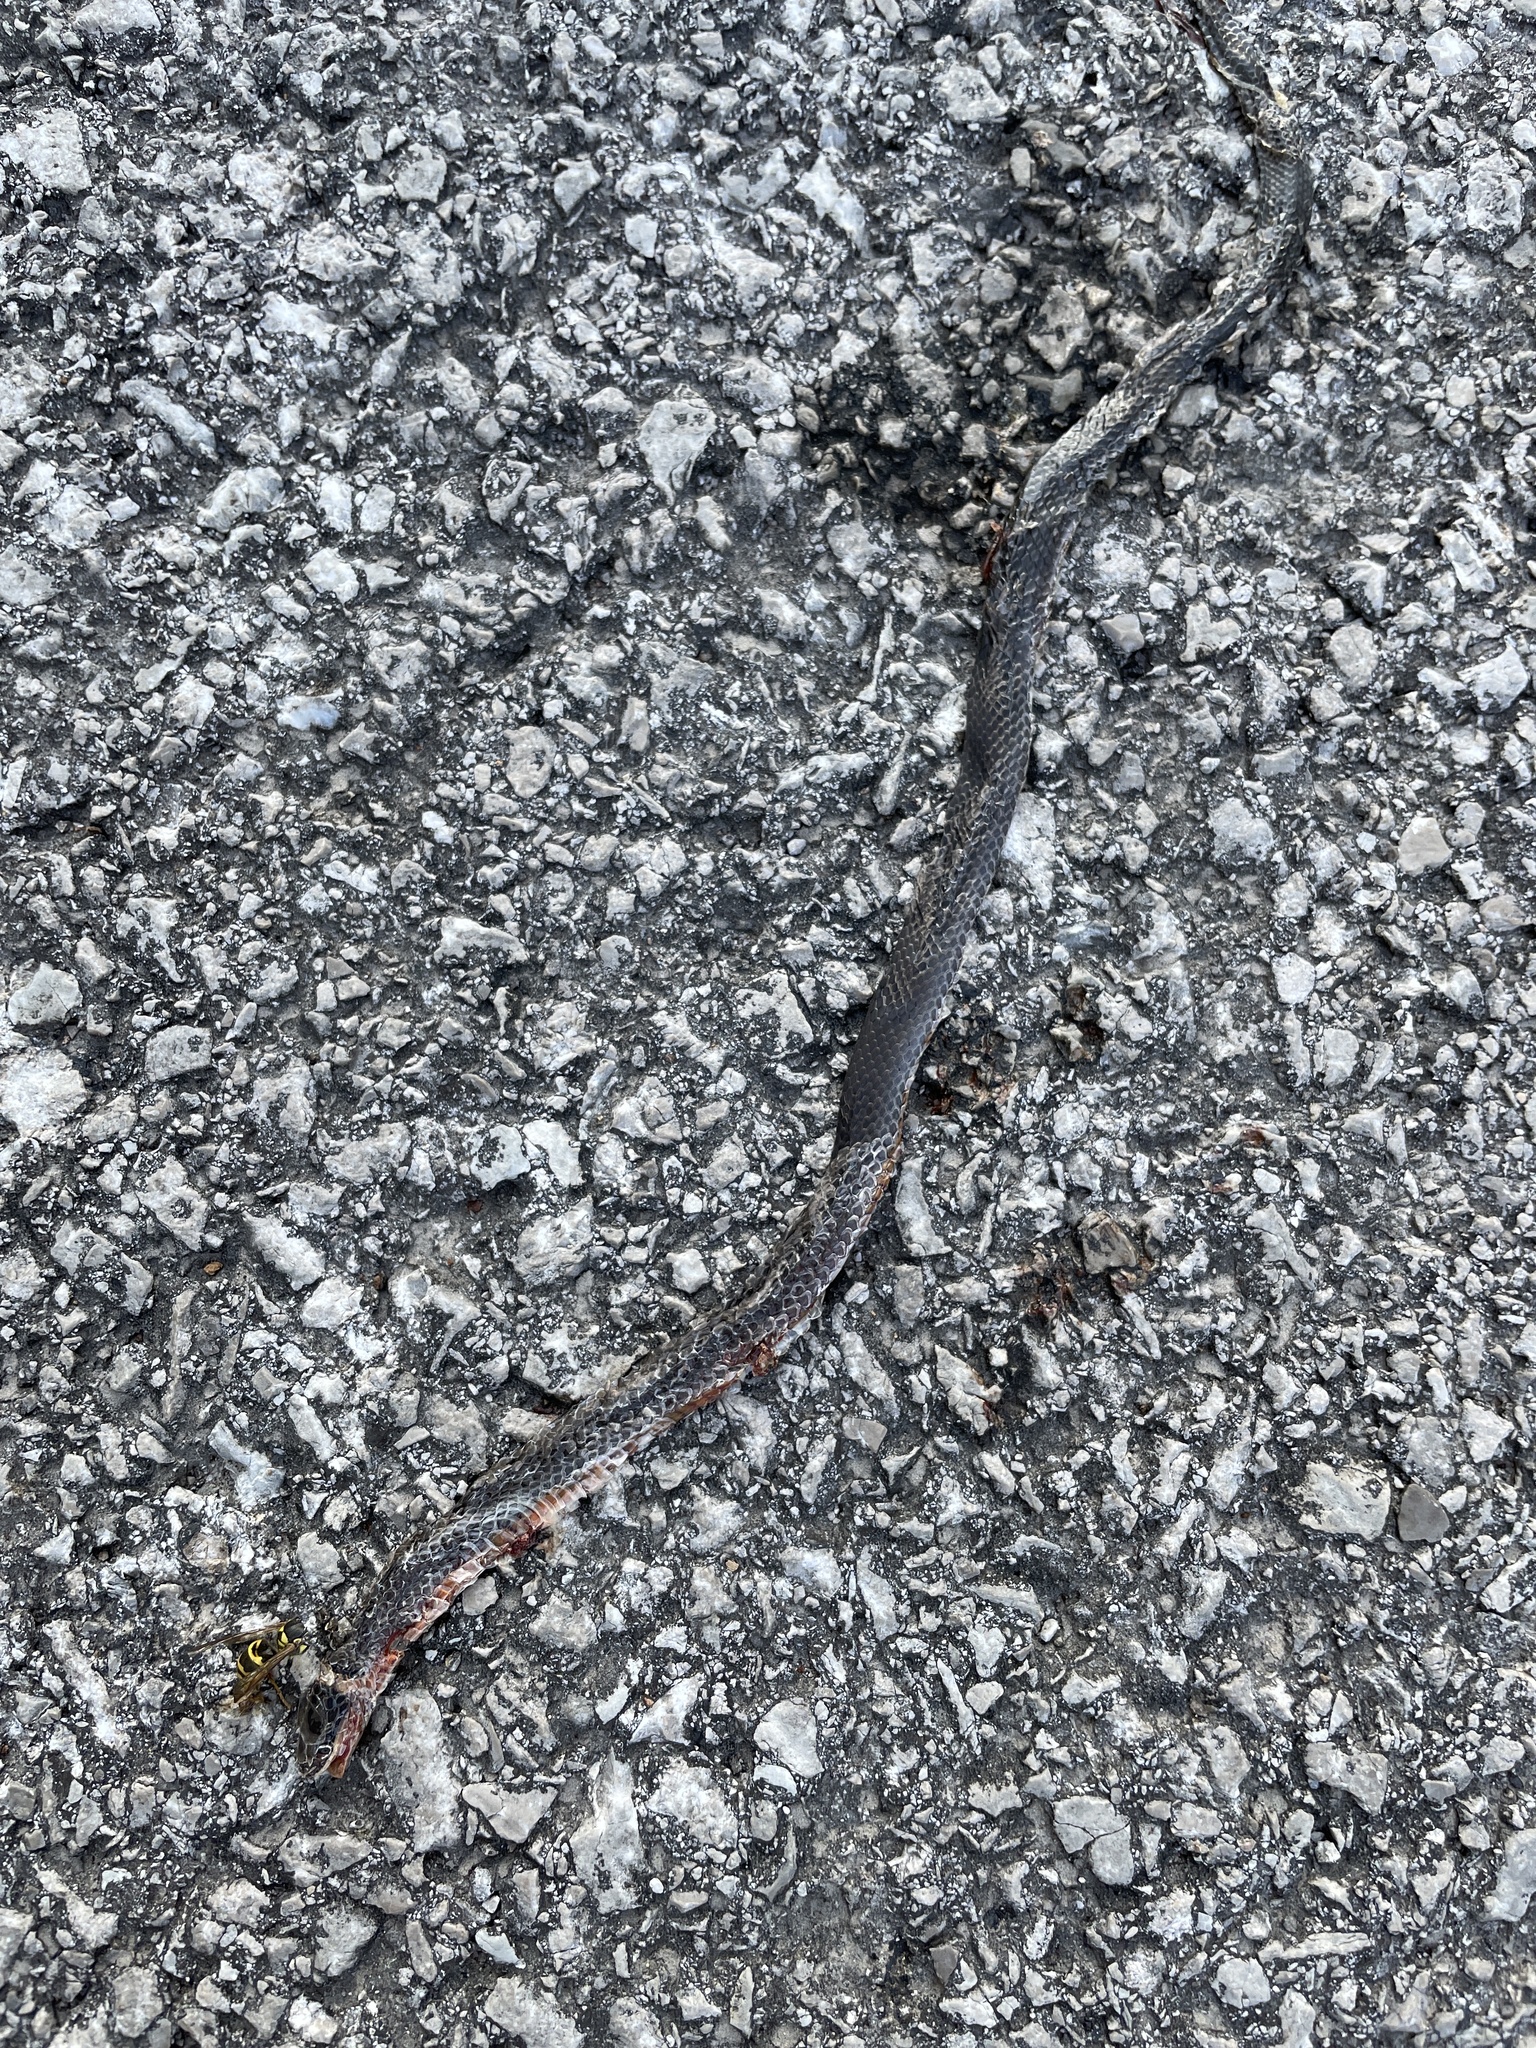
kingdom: Animalia
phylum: Chordata
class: Squamata
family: Colubridae
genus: Diadophis
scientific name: Diadophis punctatus
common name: Ringneck snake
